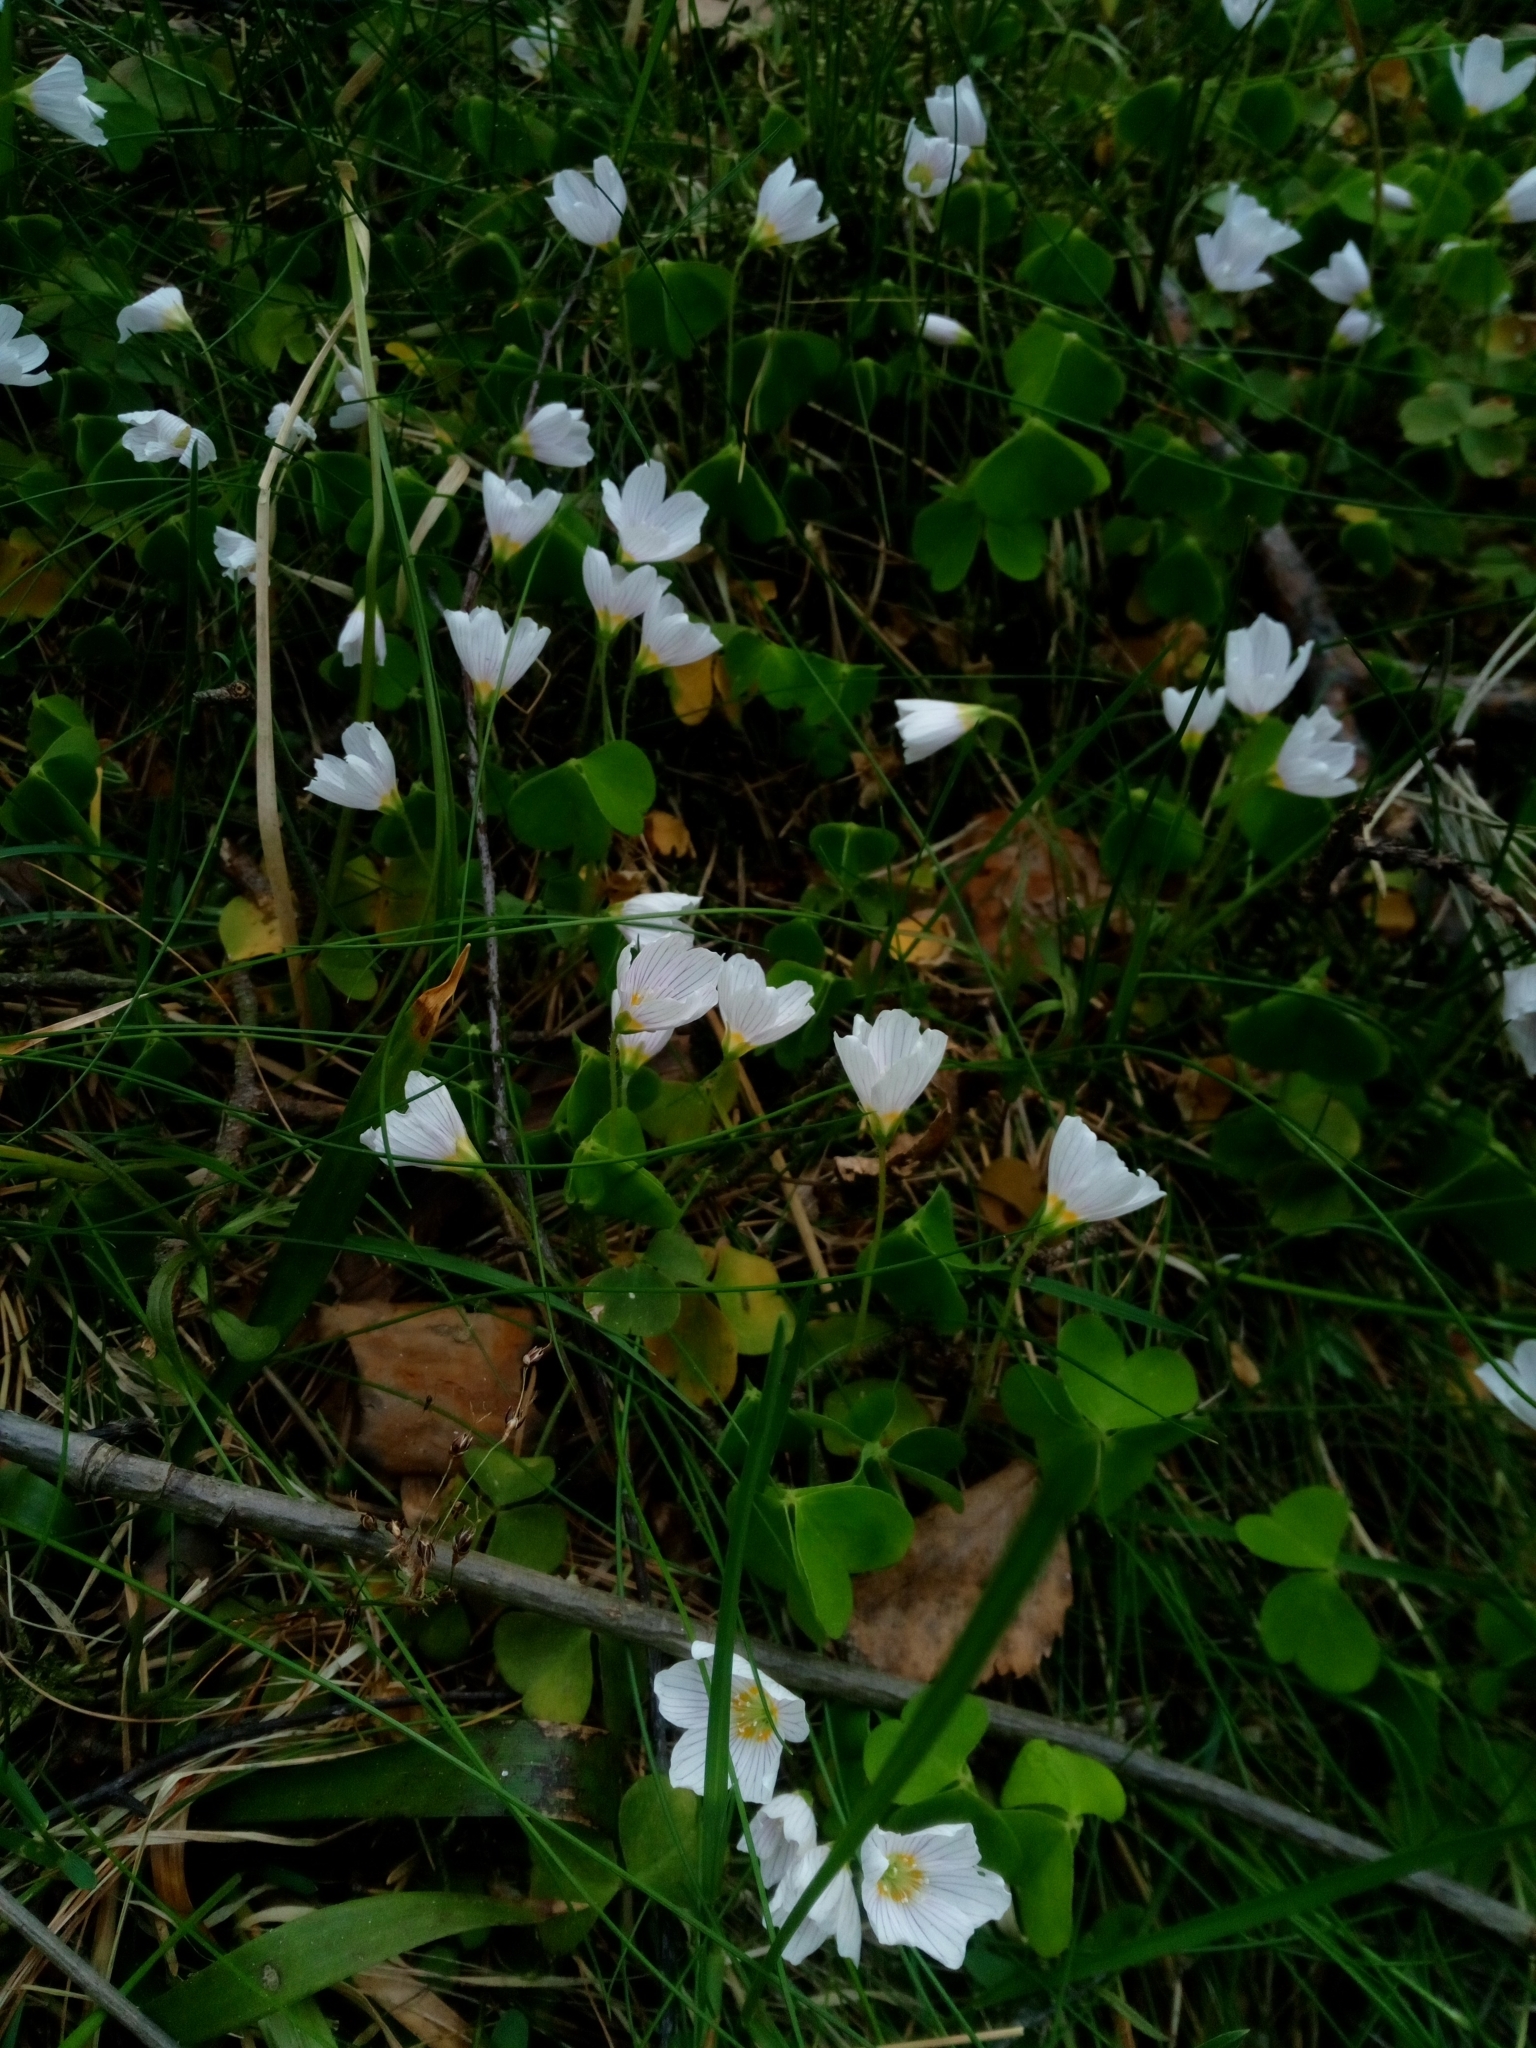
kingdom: Plantae
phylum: Tracheophyta
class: Magnoliopsida
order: Oxalidales
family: Oxalidaceae
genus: Oxalis
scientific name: Oxalis acetosella
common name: Wood-sorrel
